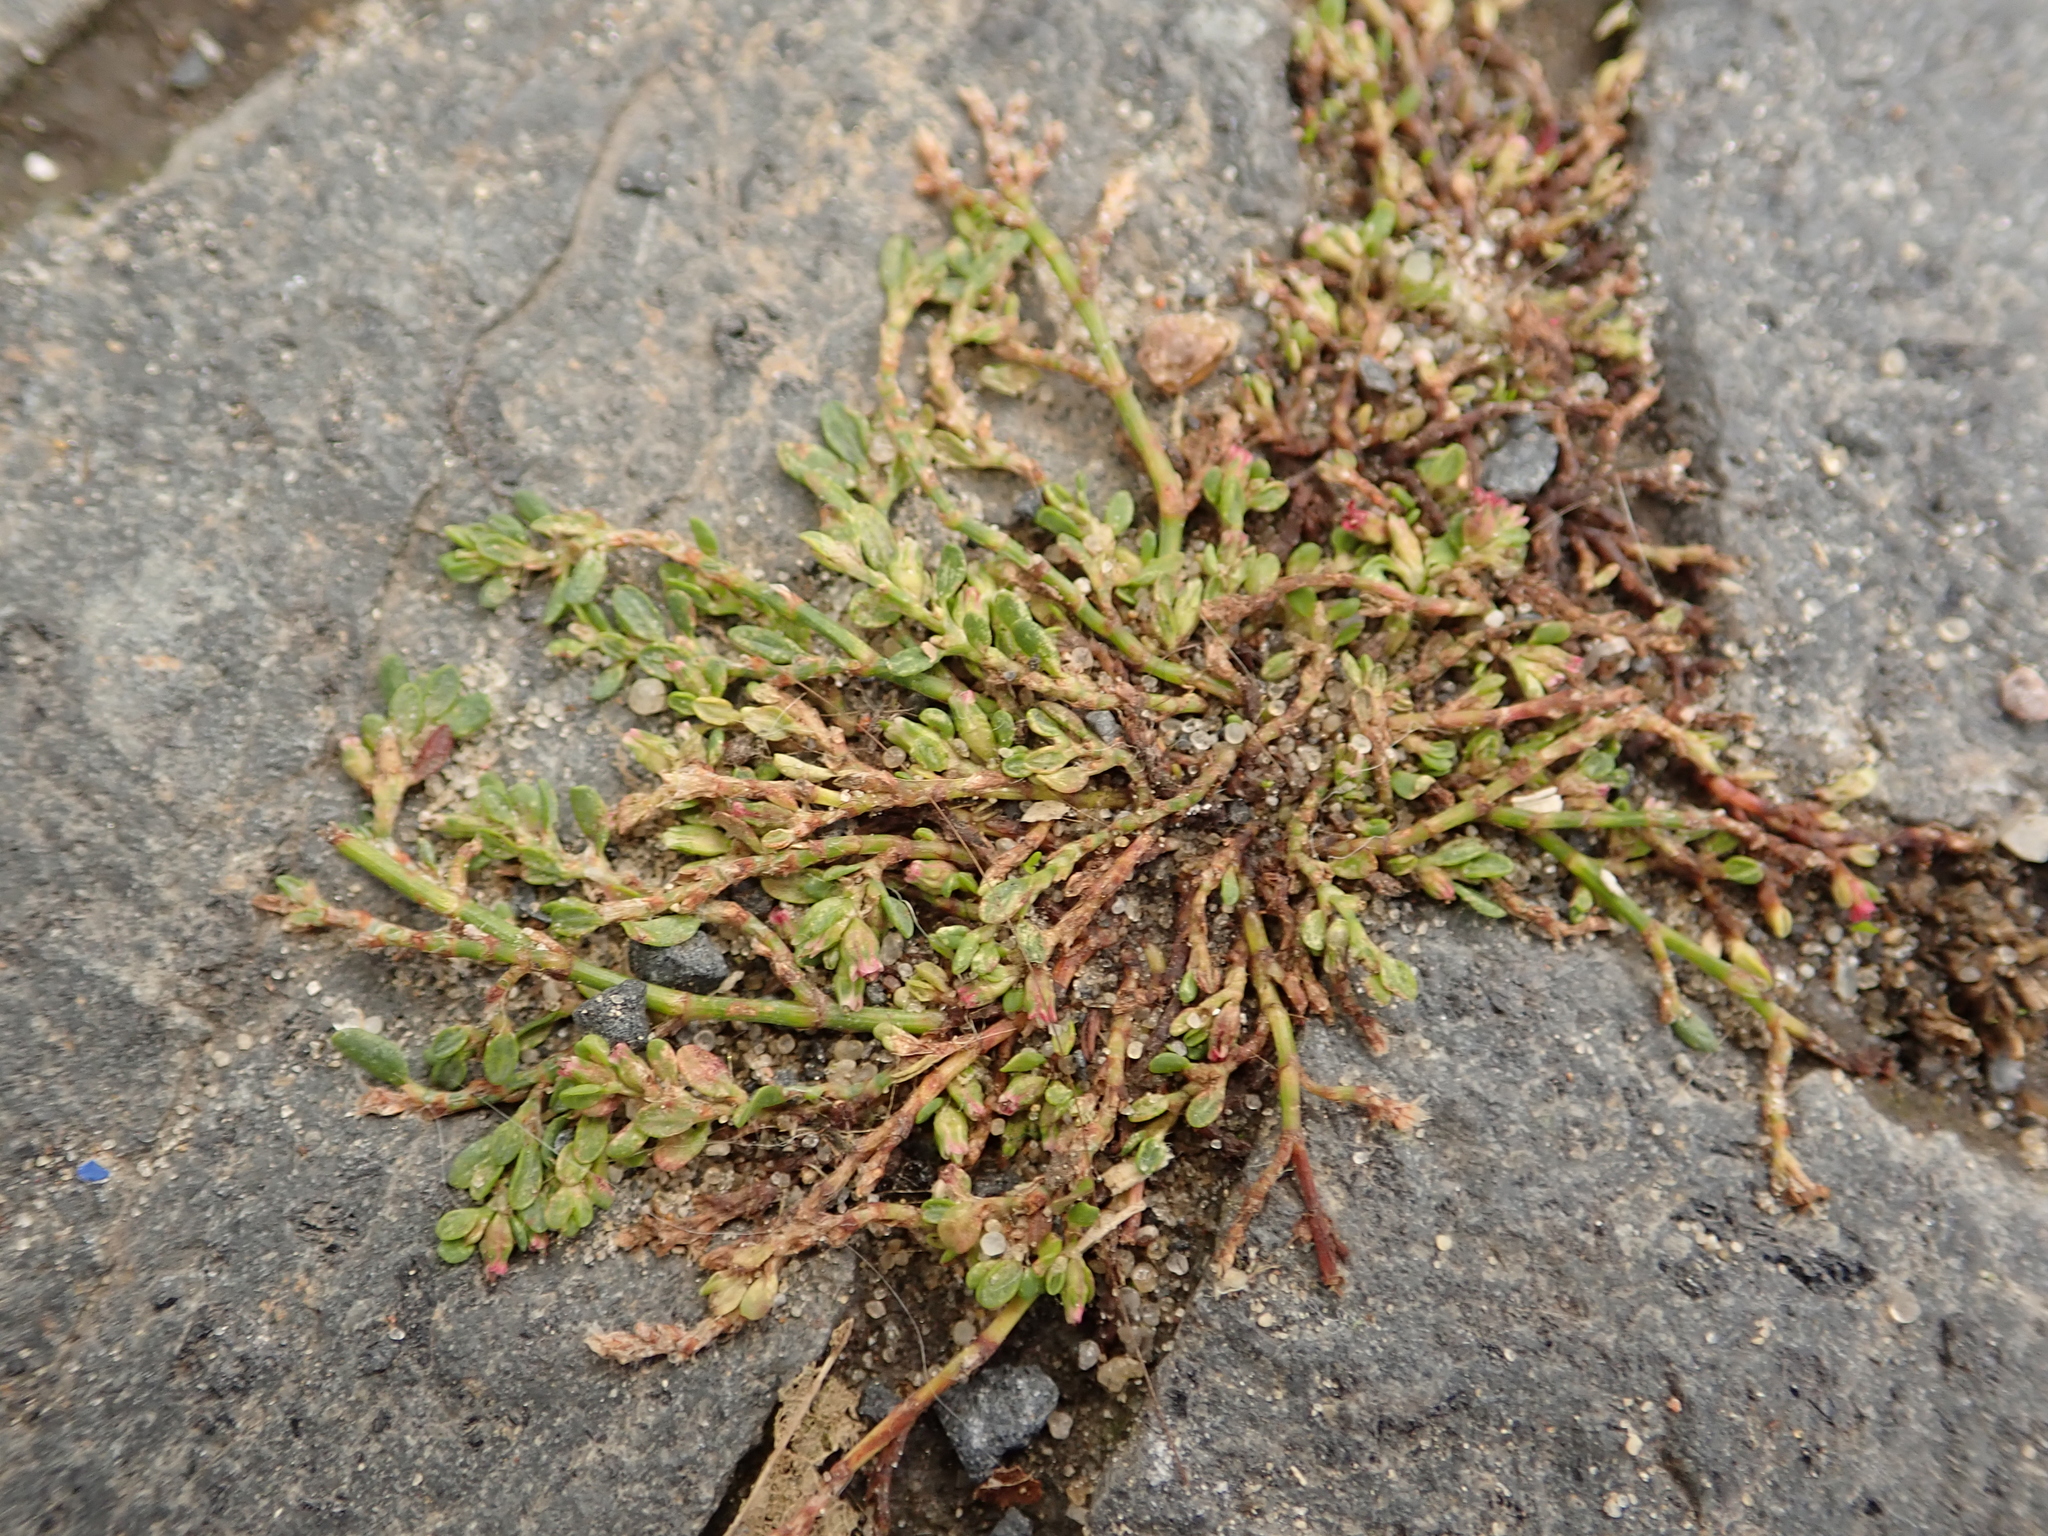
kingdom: Plantae
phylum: Tracheophyta
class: Magnoliopsida
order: Caryophyllales
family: Polygonaceae
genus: Polygonum
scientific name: Polygonum arenastrum
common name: Equal-leaved knotgrass
